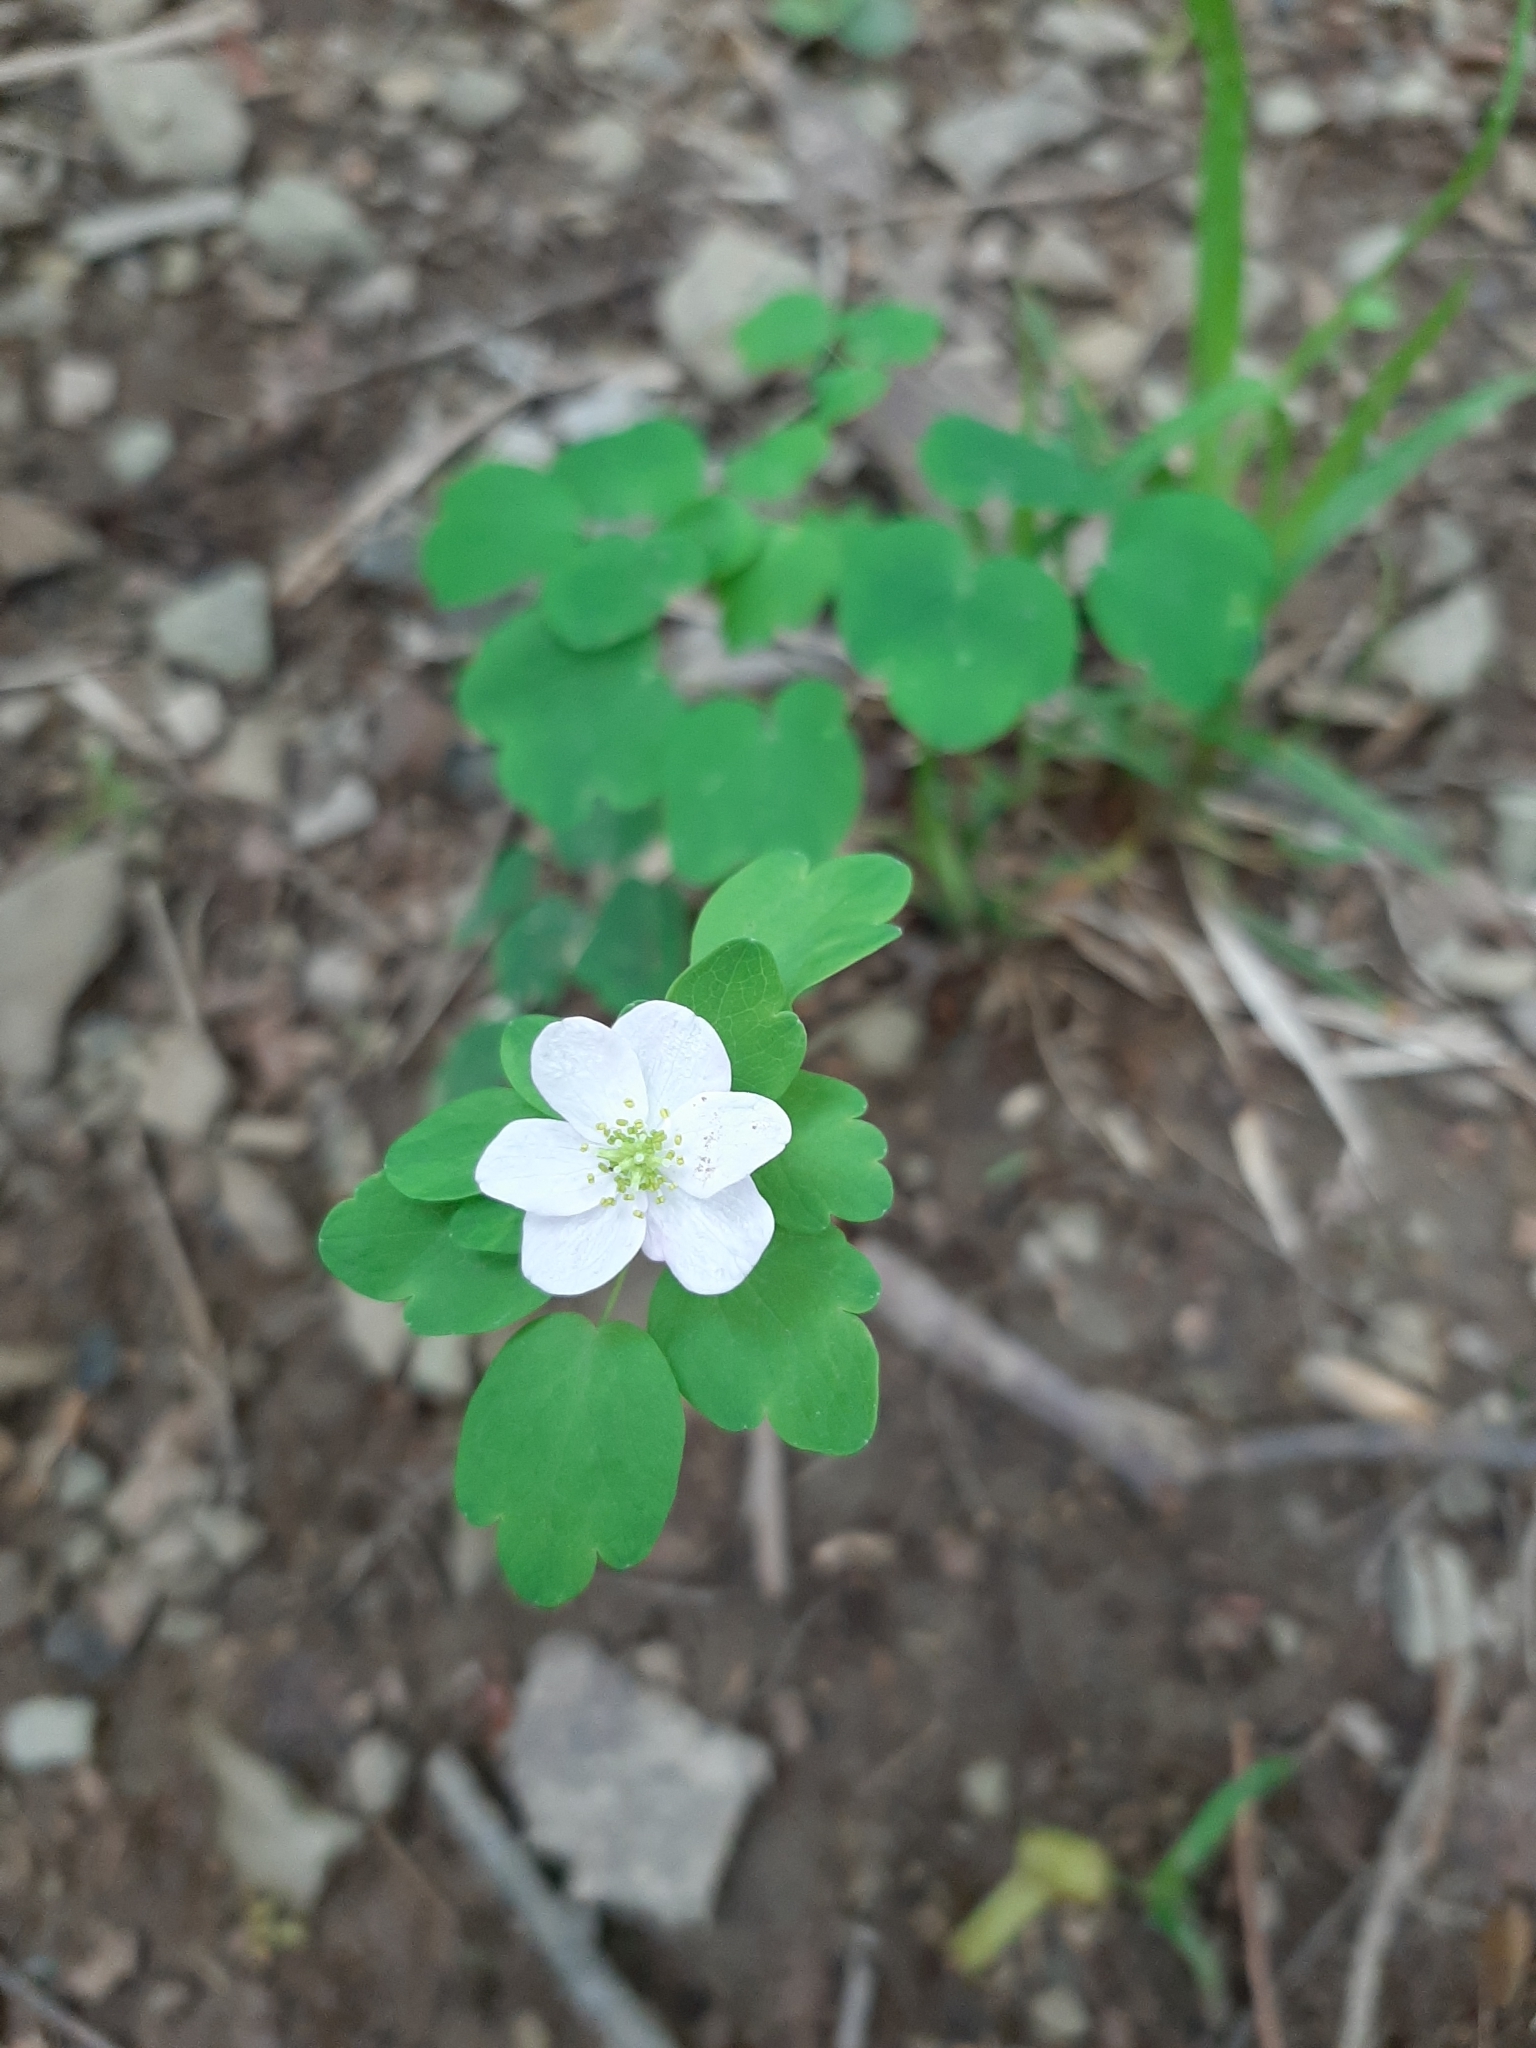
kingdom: Plantae
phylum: Tracheophyta
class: Magnoliopsida
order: Ranunculales
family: Ranunculaceae
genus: Thalictrum
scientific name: Thalictrum thalictroides
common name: Rue-anemone
